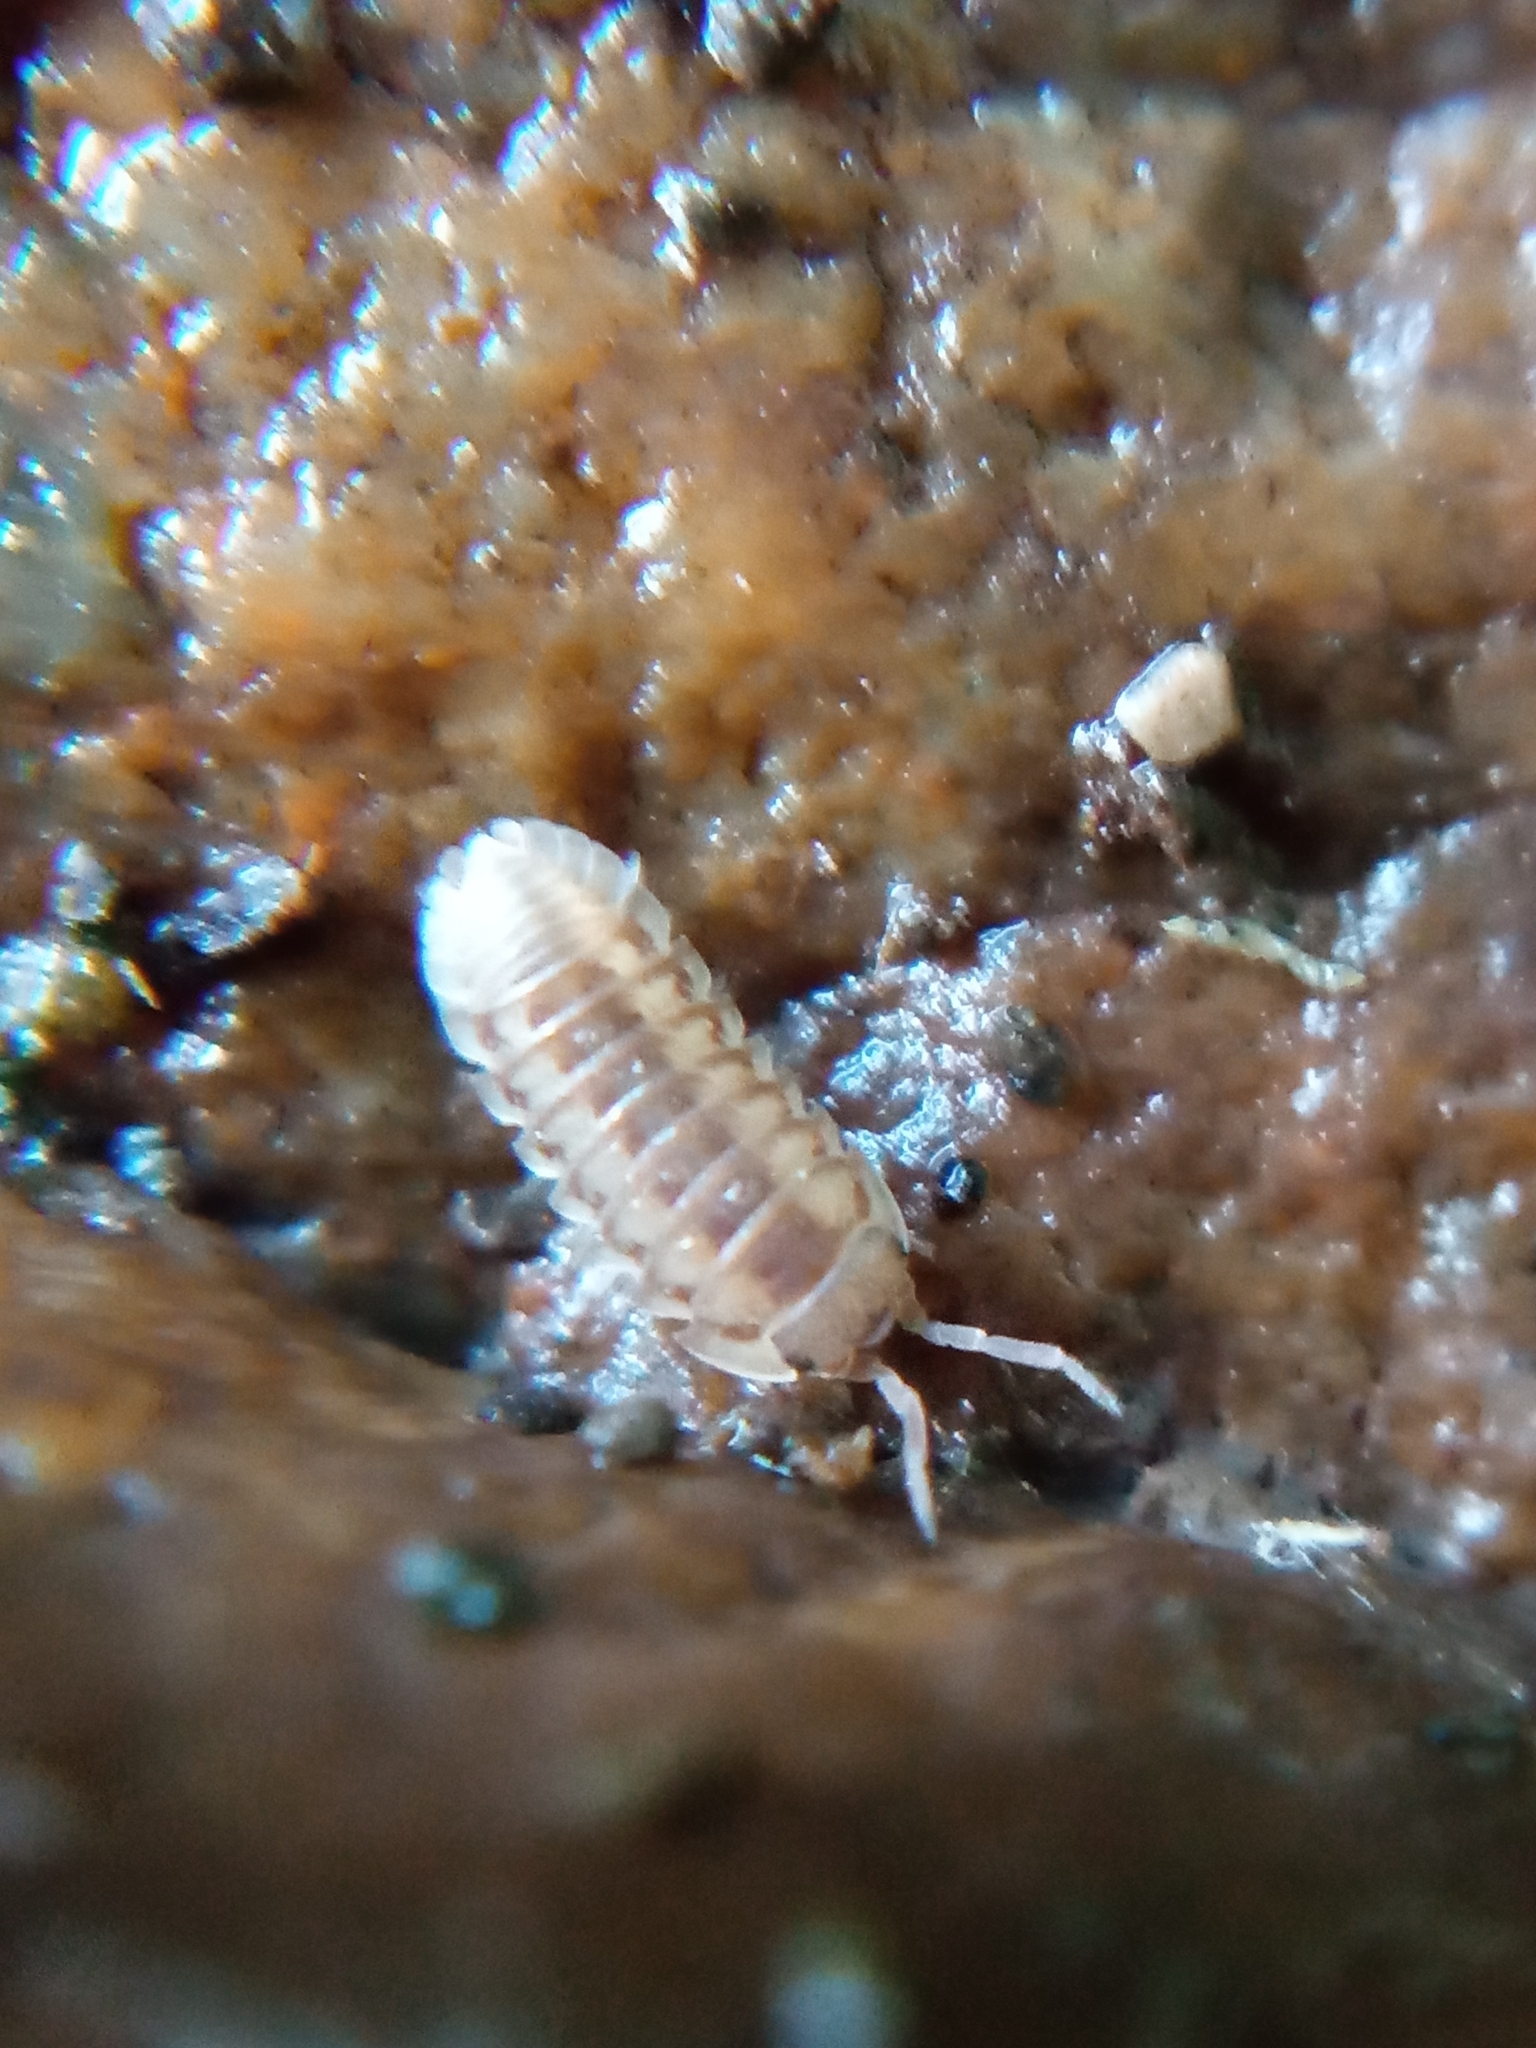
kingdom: Animalia
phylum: Arthropoda
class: Malacostraca
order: Isopoda
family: Armadillidiidae
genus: Armadillidium
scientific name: Armadillidium nasatum
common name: Isopod
